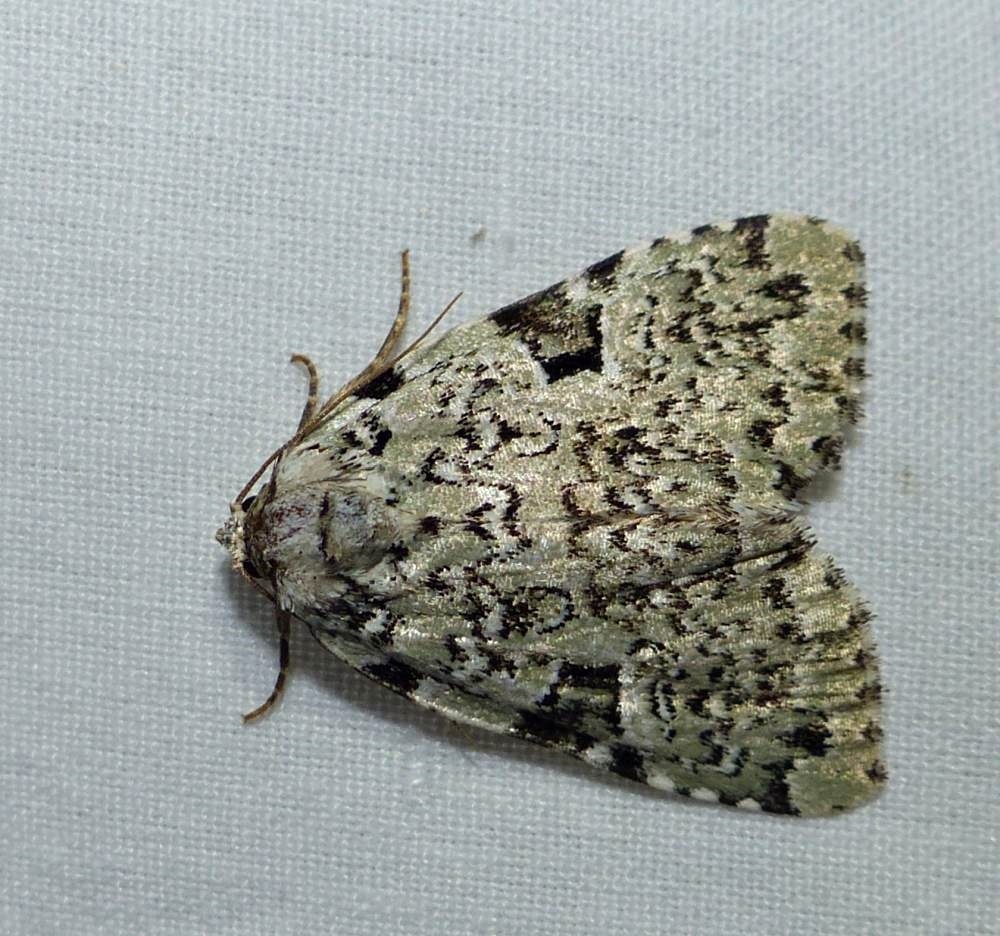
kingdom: Animalia
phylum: Arthropoda
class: Insecta
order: Lepidoptera
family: Noctuidae
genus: Leuconycta
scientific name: Leuconycta diphteroides
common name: Green leuconycta moth
